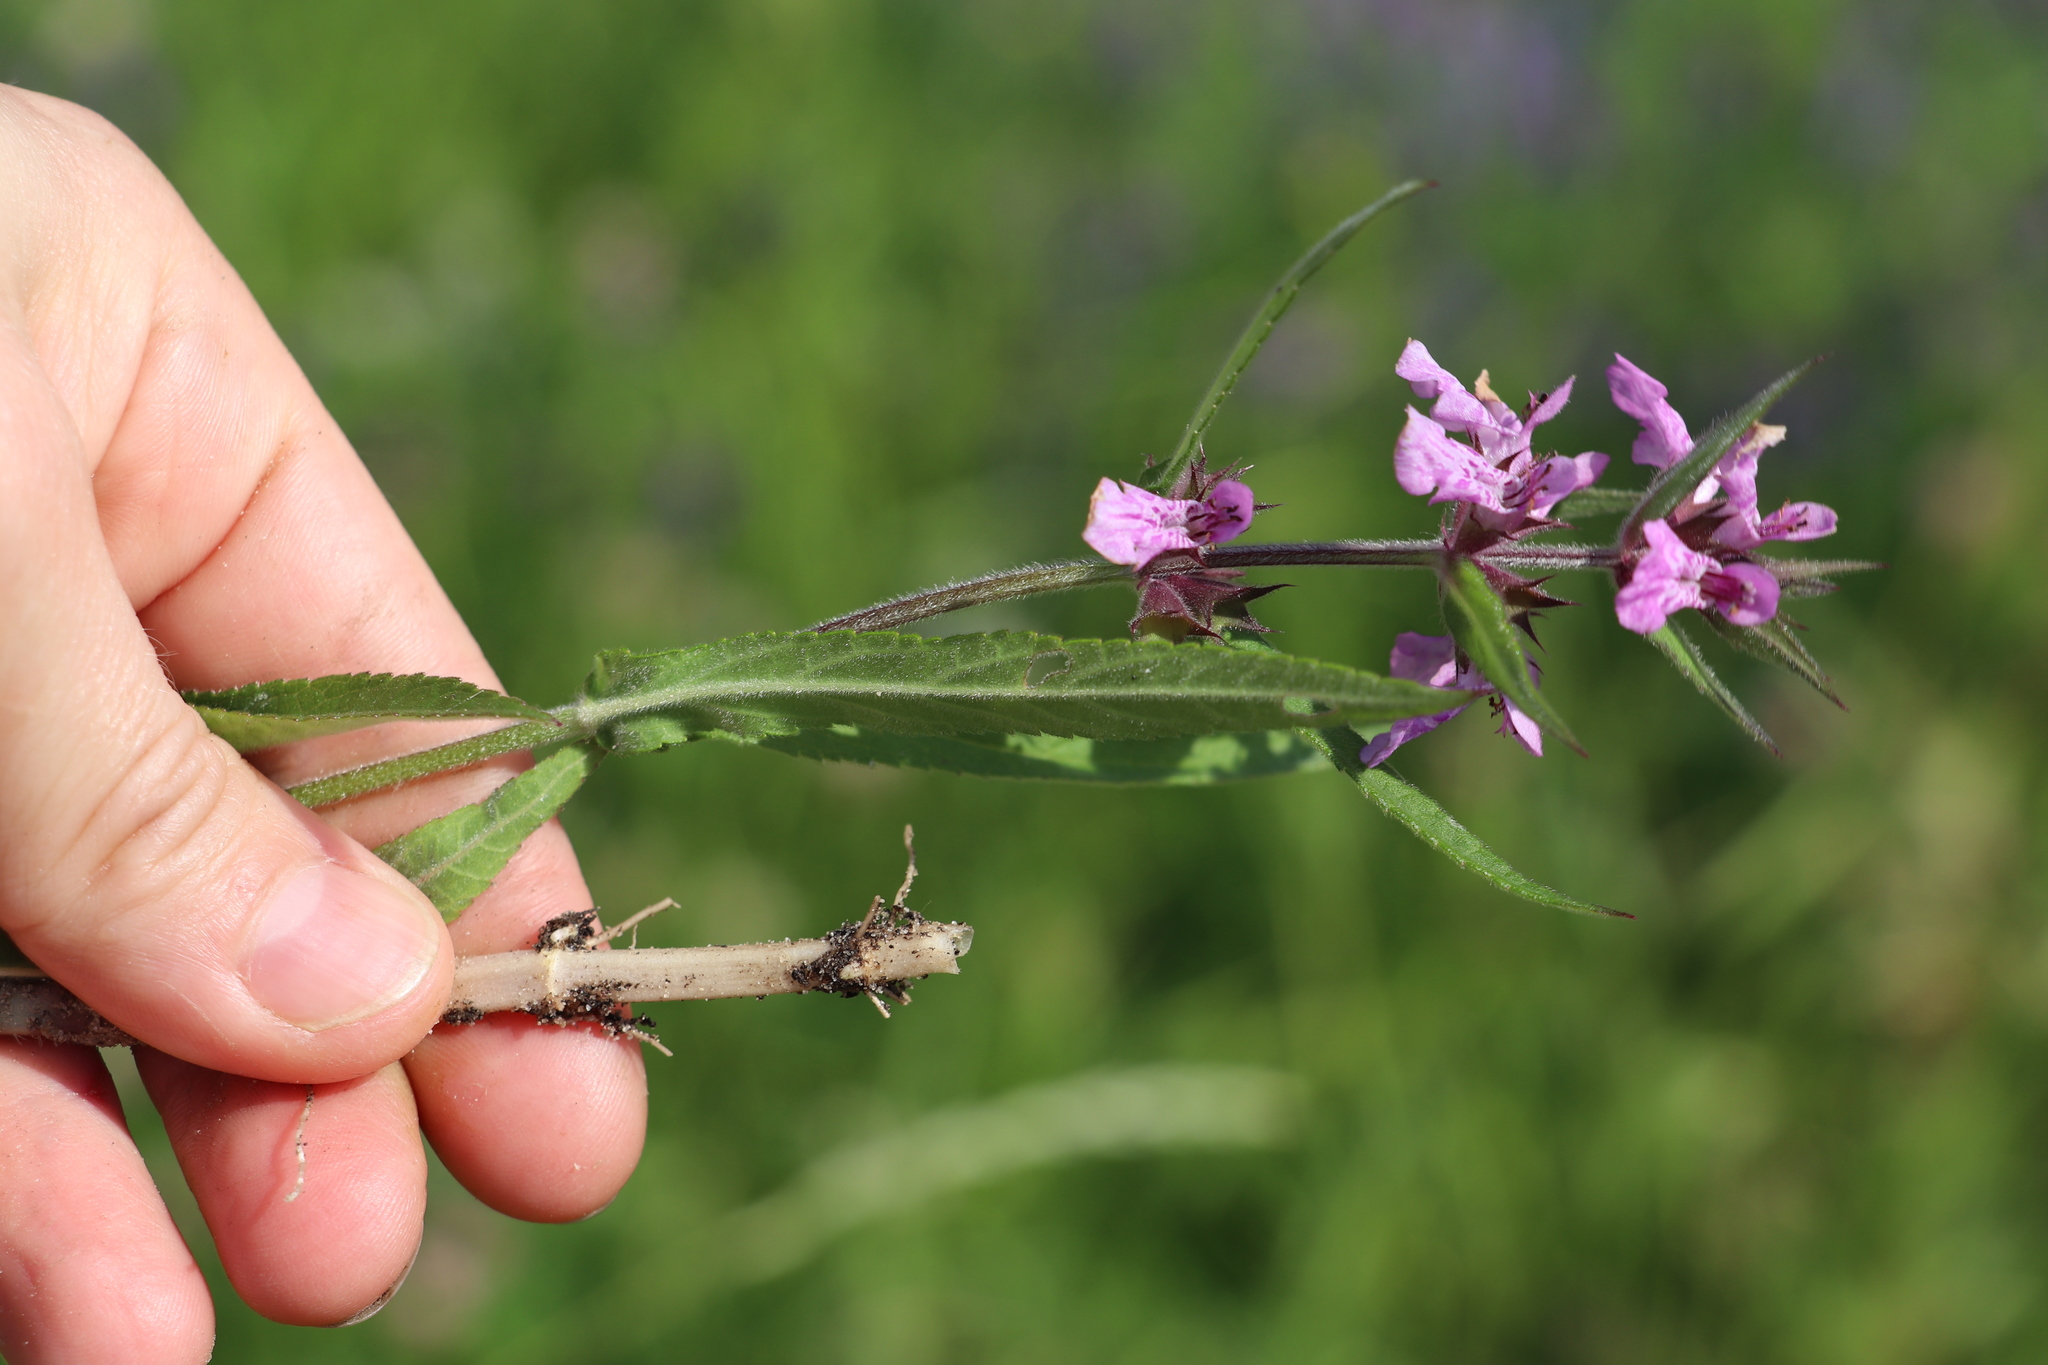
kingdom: Plantae
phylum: Tracheophyta
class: Magnoliopsida
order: Lamiales
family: Lamiaceae
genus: Stachys
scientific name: Stachys palustris
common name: Marsh woundwort
